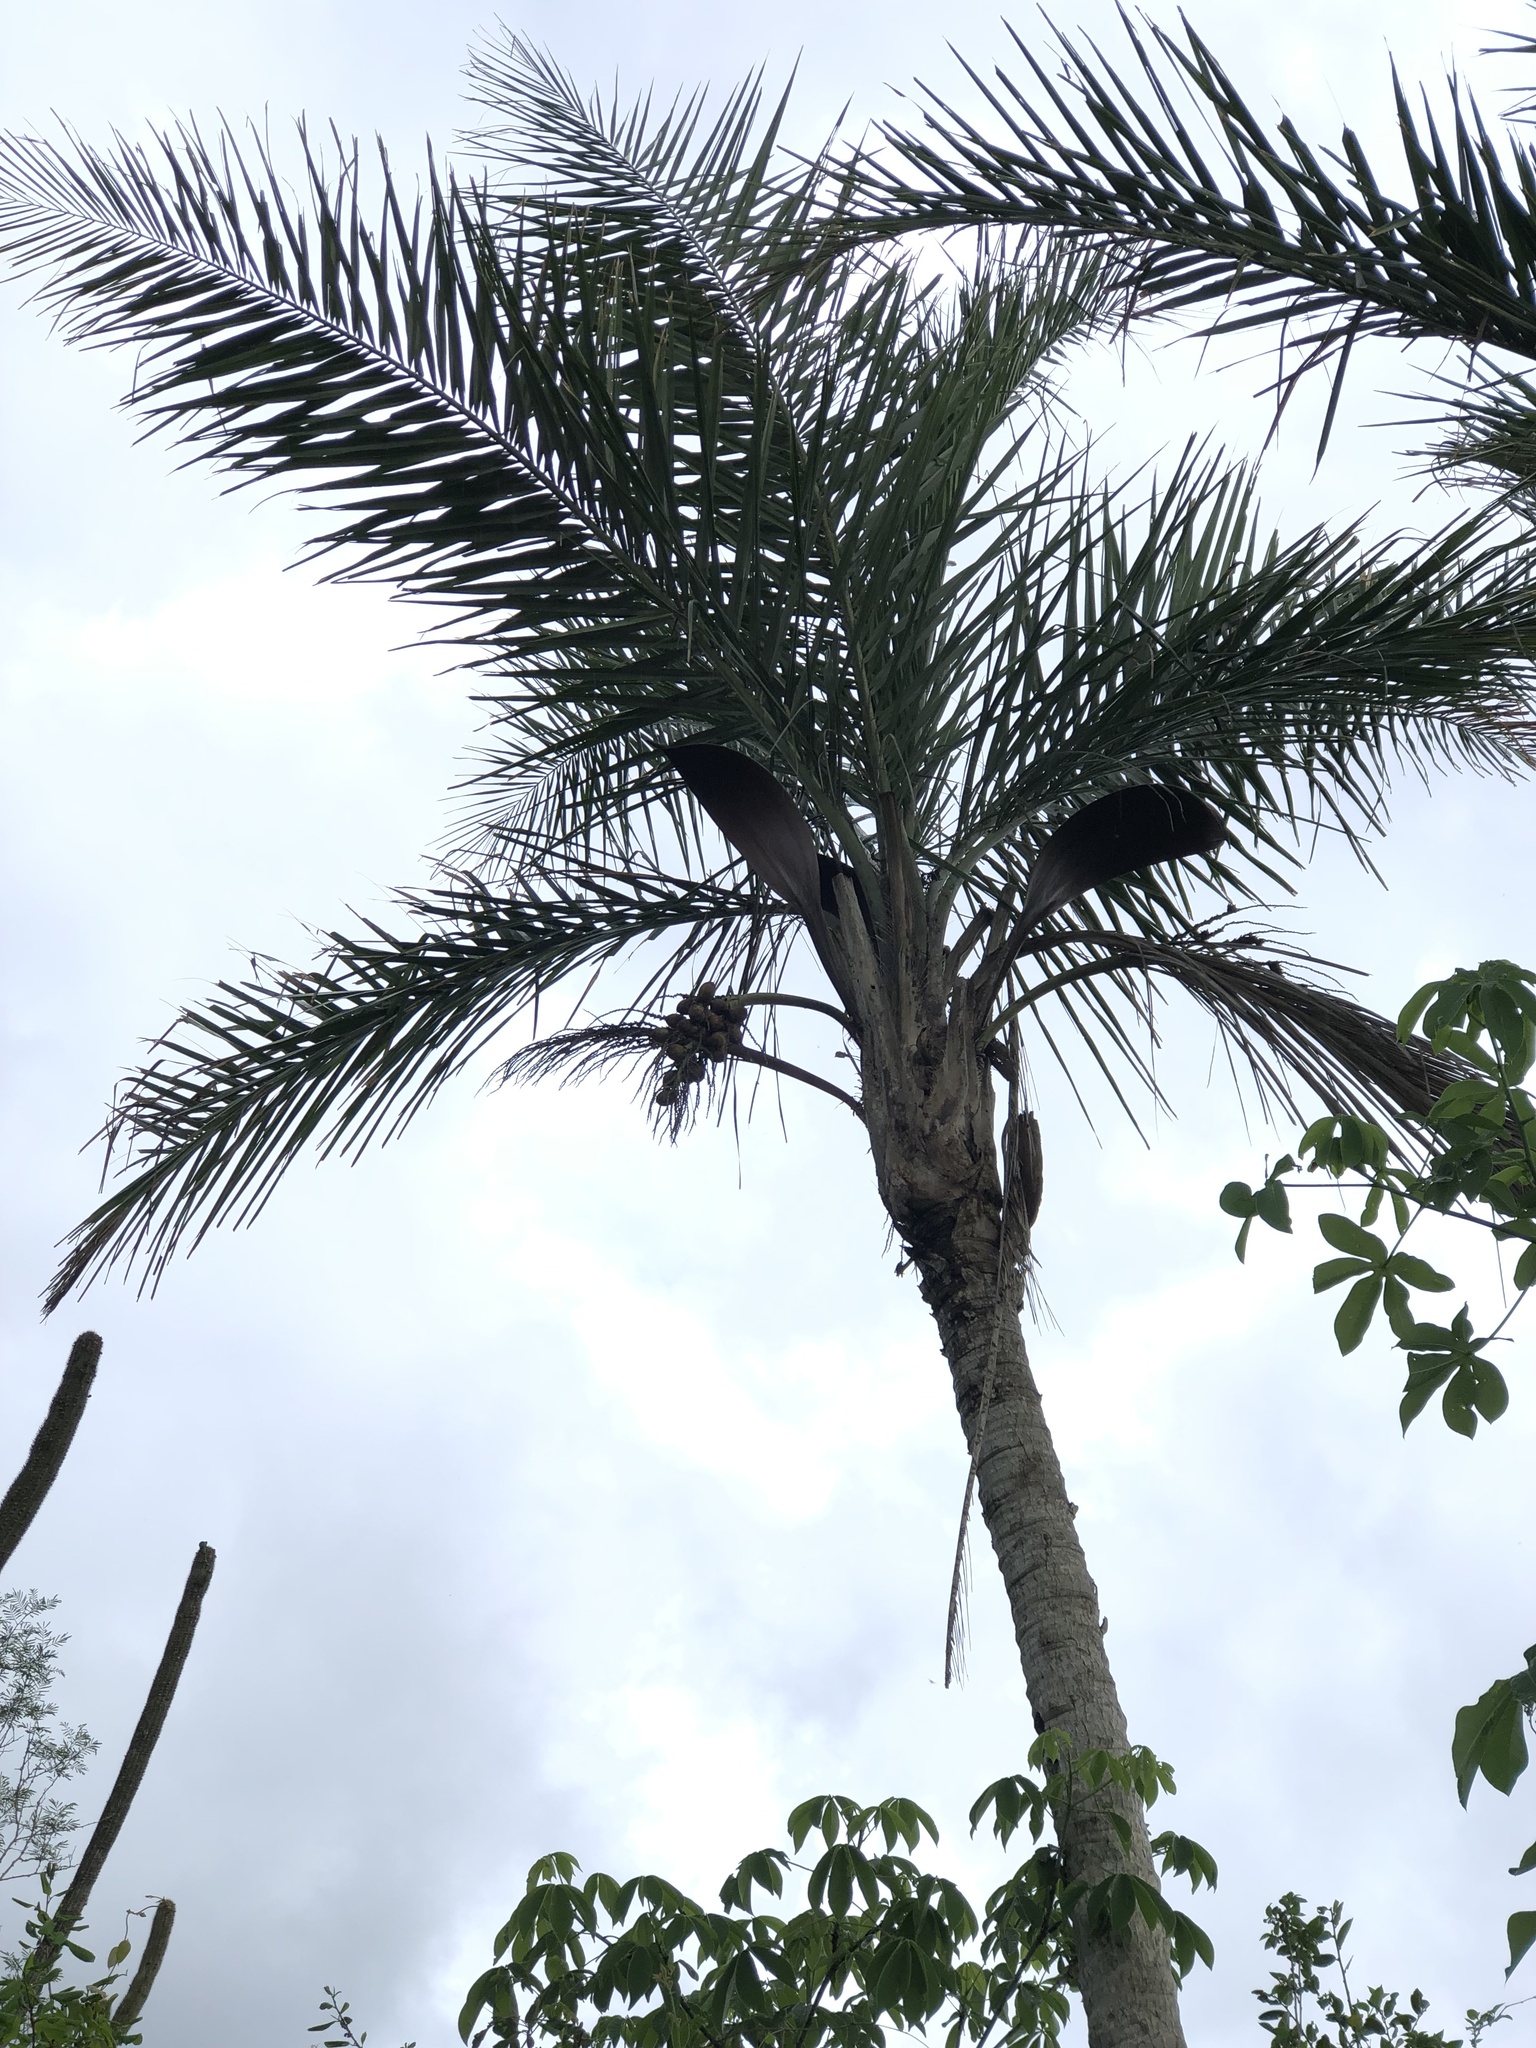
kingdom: Plantae
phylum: Tracheophyta
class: Liliopsida
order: Arecales
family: Arecaceae
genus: Syagrus
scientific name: Syagrus cearensis
